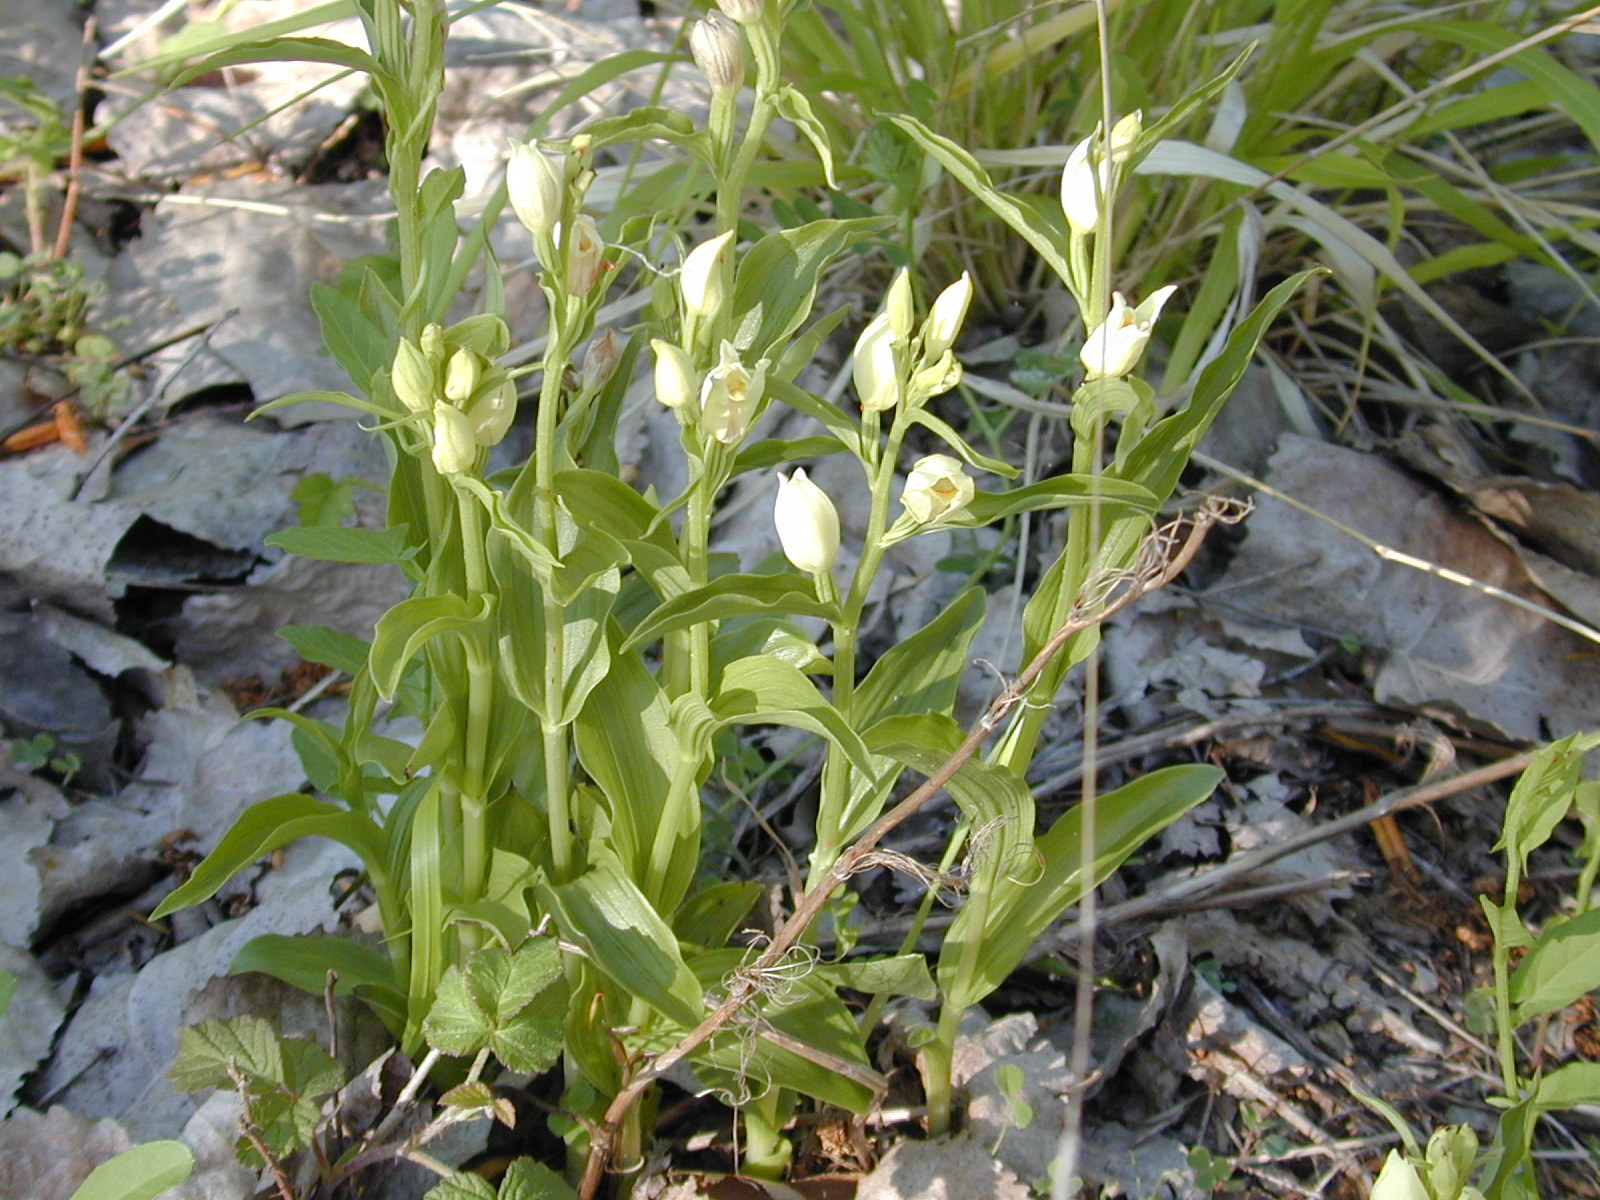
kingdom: Plantae
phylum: Tracheophyta
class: Liliopsida
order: Asparagales
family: Orchidaceae
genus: Cephalanthera
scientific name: Cephalanthera damasonium
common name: White helleborine
